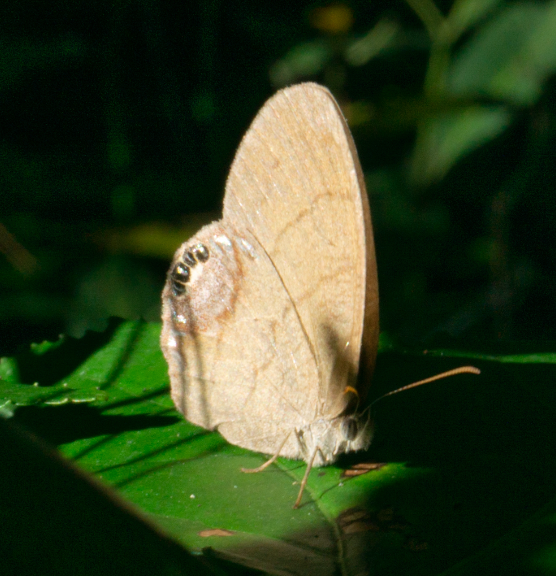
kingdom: Animalia
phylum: Arthropoda
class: Insecta
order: Lepidoptera
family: Nymphalidae
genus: Euptychia
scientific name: Euptychia cornelius
